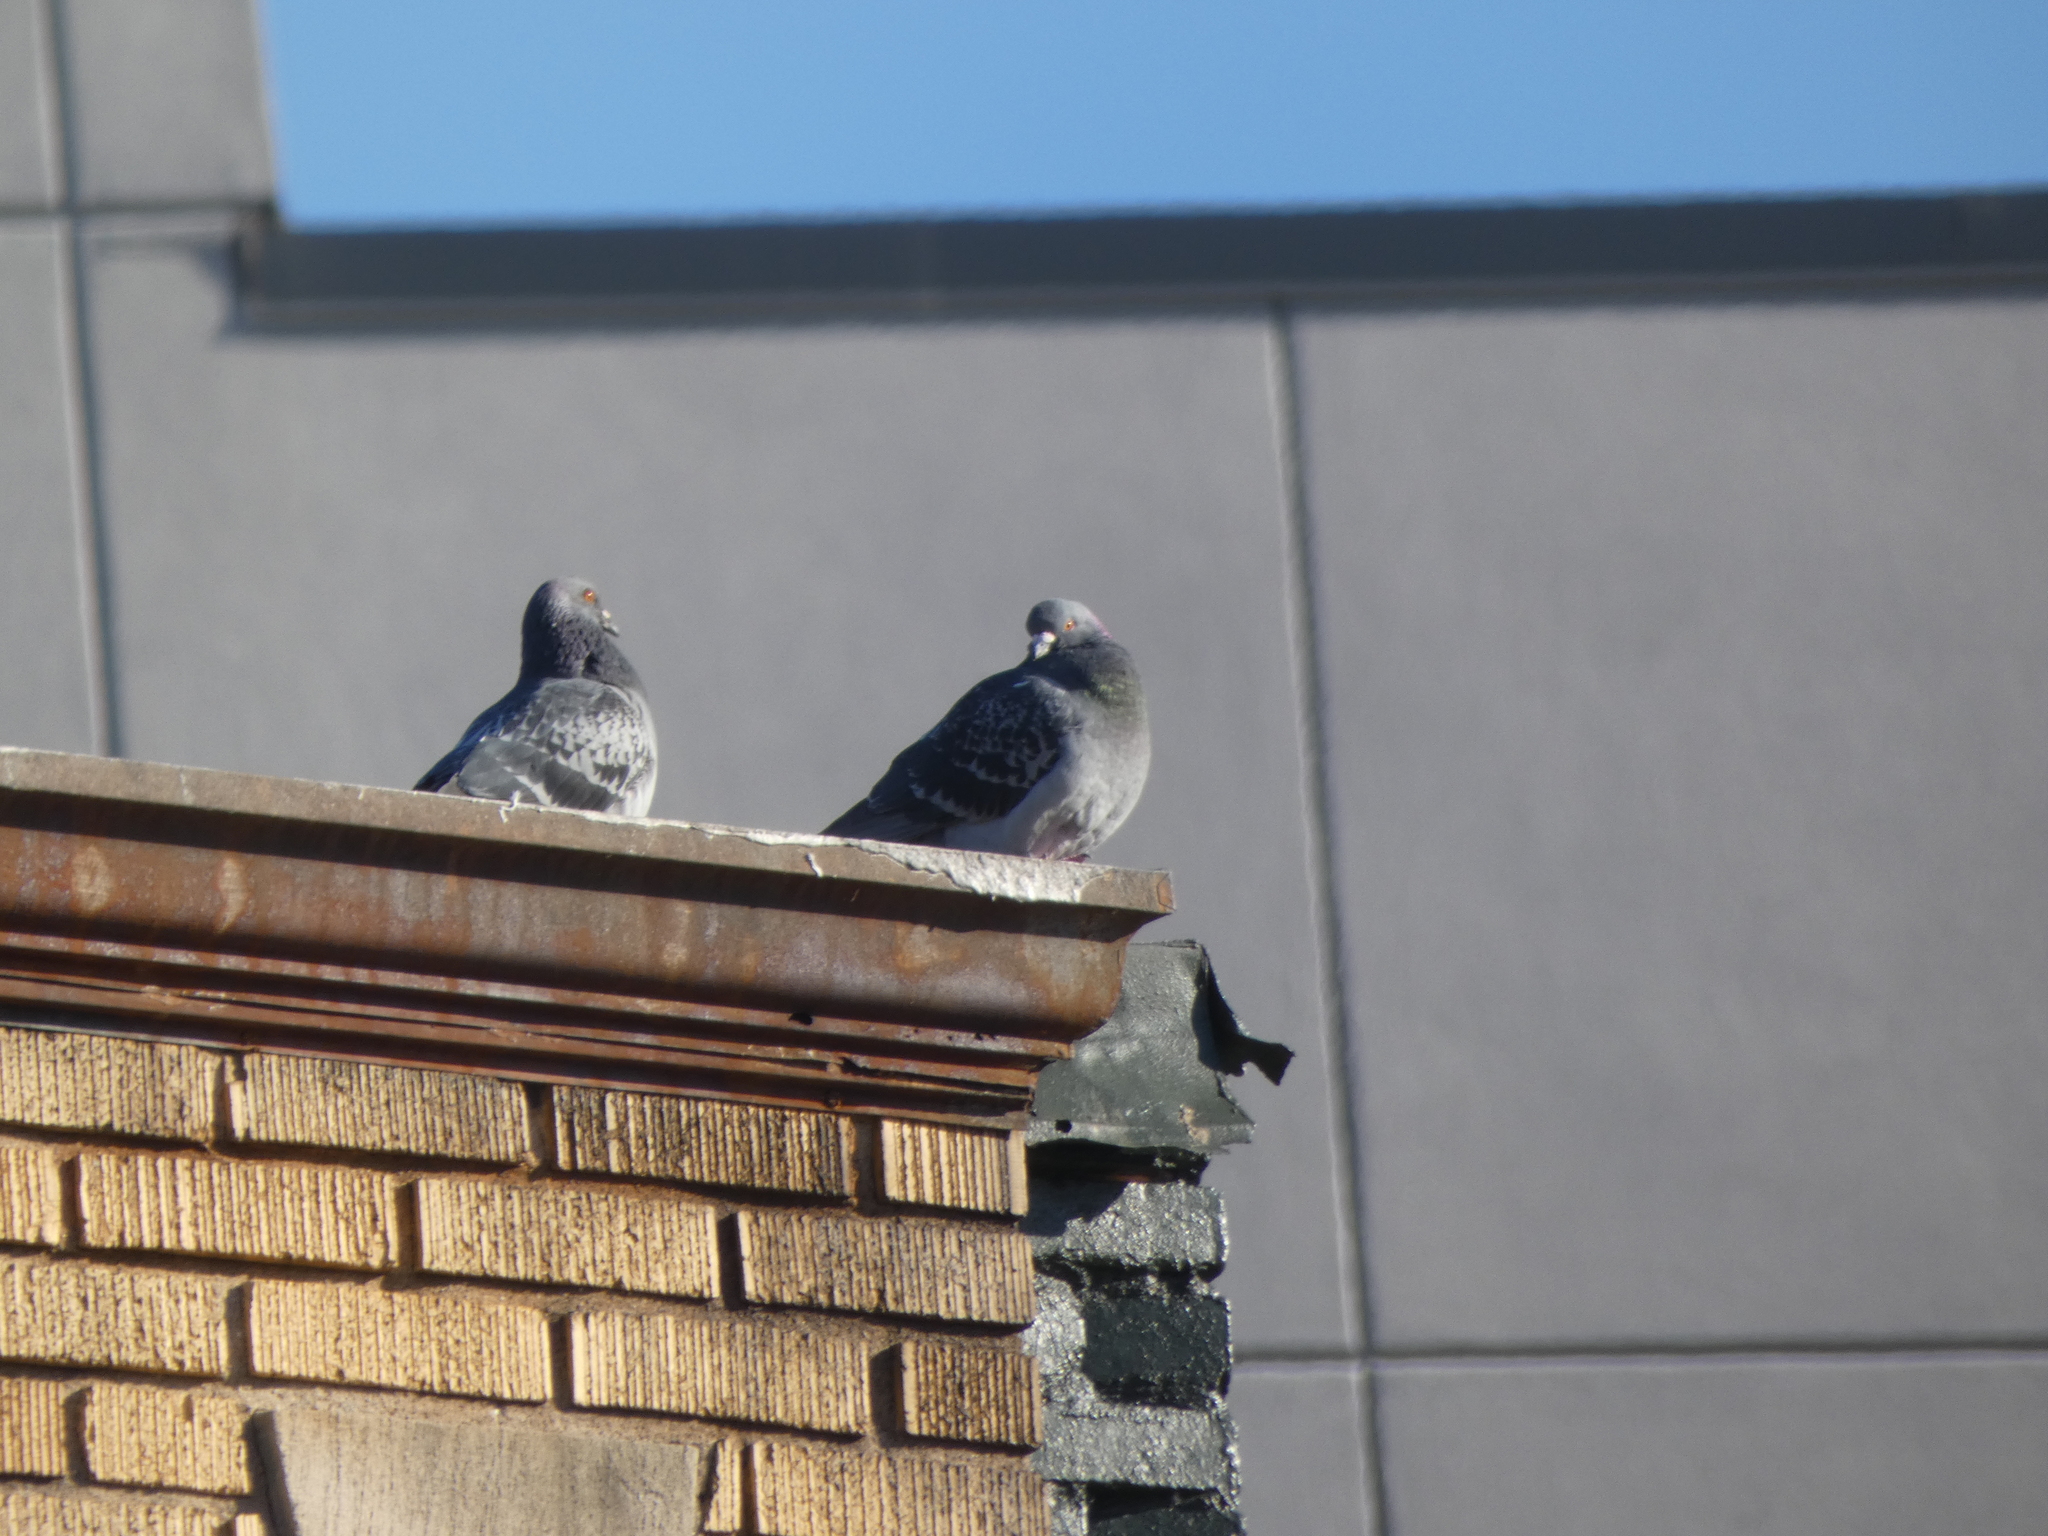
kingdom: Animalia
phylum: Chordata
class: Aves
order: Columbiformes
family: Columbidae
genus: Columba
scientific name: Columba livia
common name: Rock pigeon
